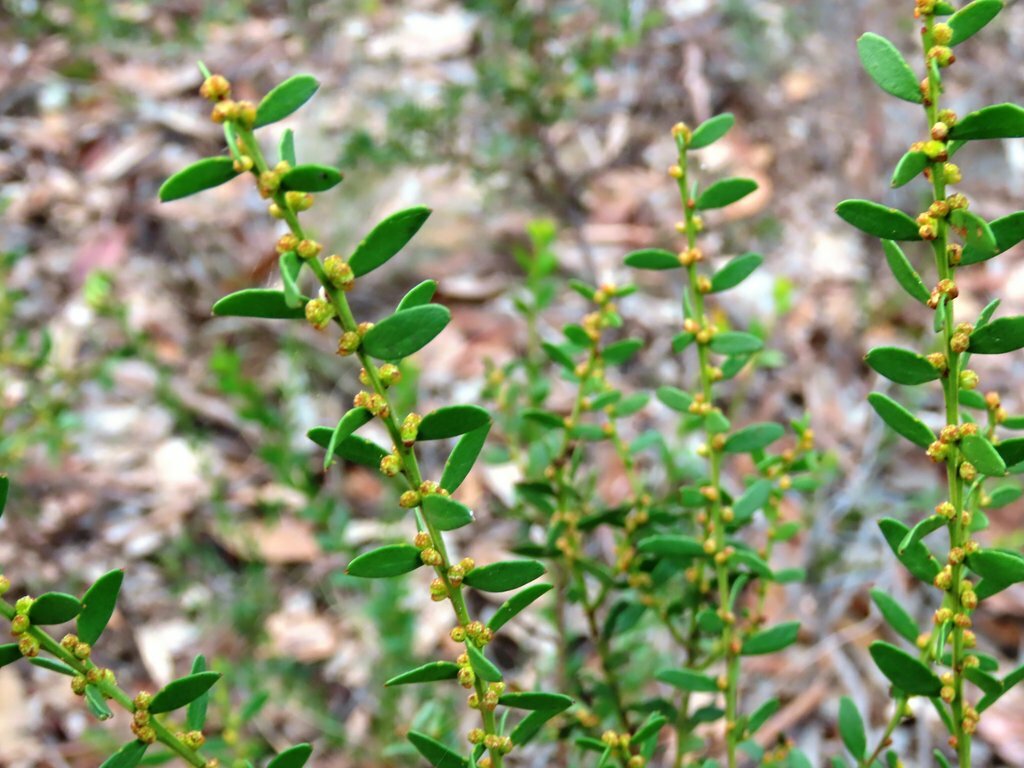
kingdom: Plantae
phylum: Tracheophyta
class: Magnoliopsida
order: Fabales
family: Fabaceae
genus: Acacia
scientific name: Acacia acinacea
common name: Gold-dust acacia
